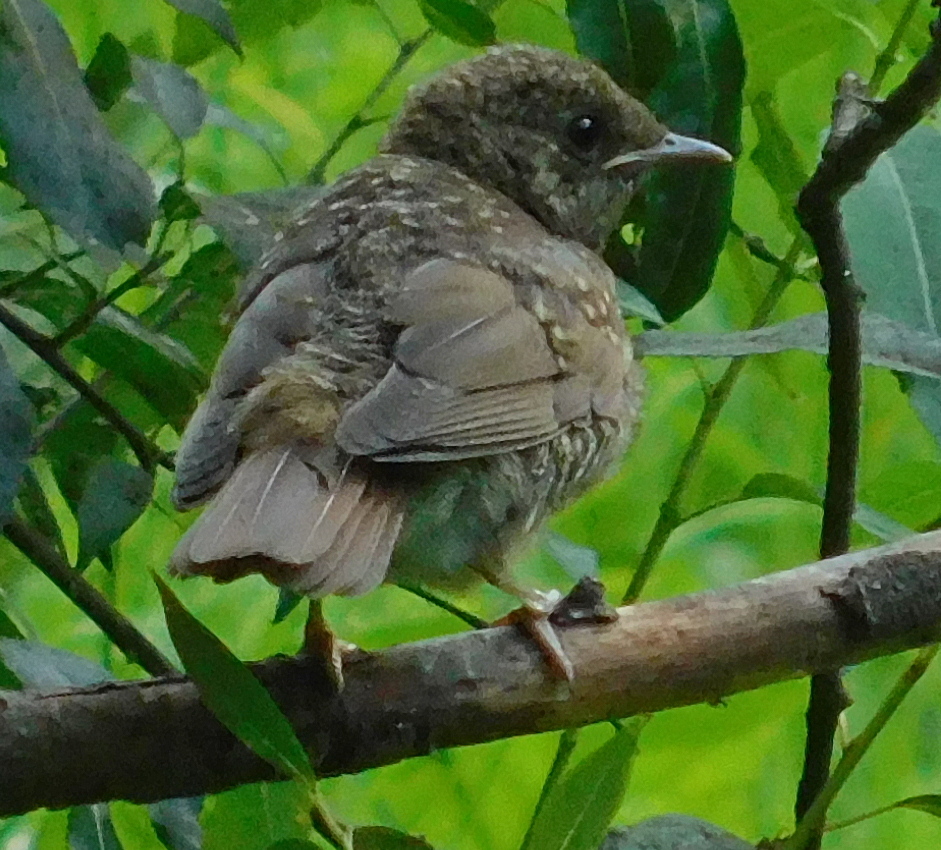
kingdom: Animalia
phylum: Chordata
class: Aves
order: Passeriformes
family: Muscicapidae
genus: Luscinia
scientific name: Luscinia luscinia
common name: Thrush nightingale
